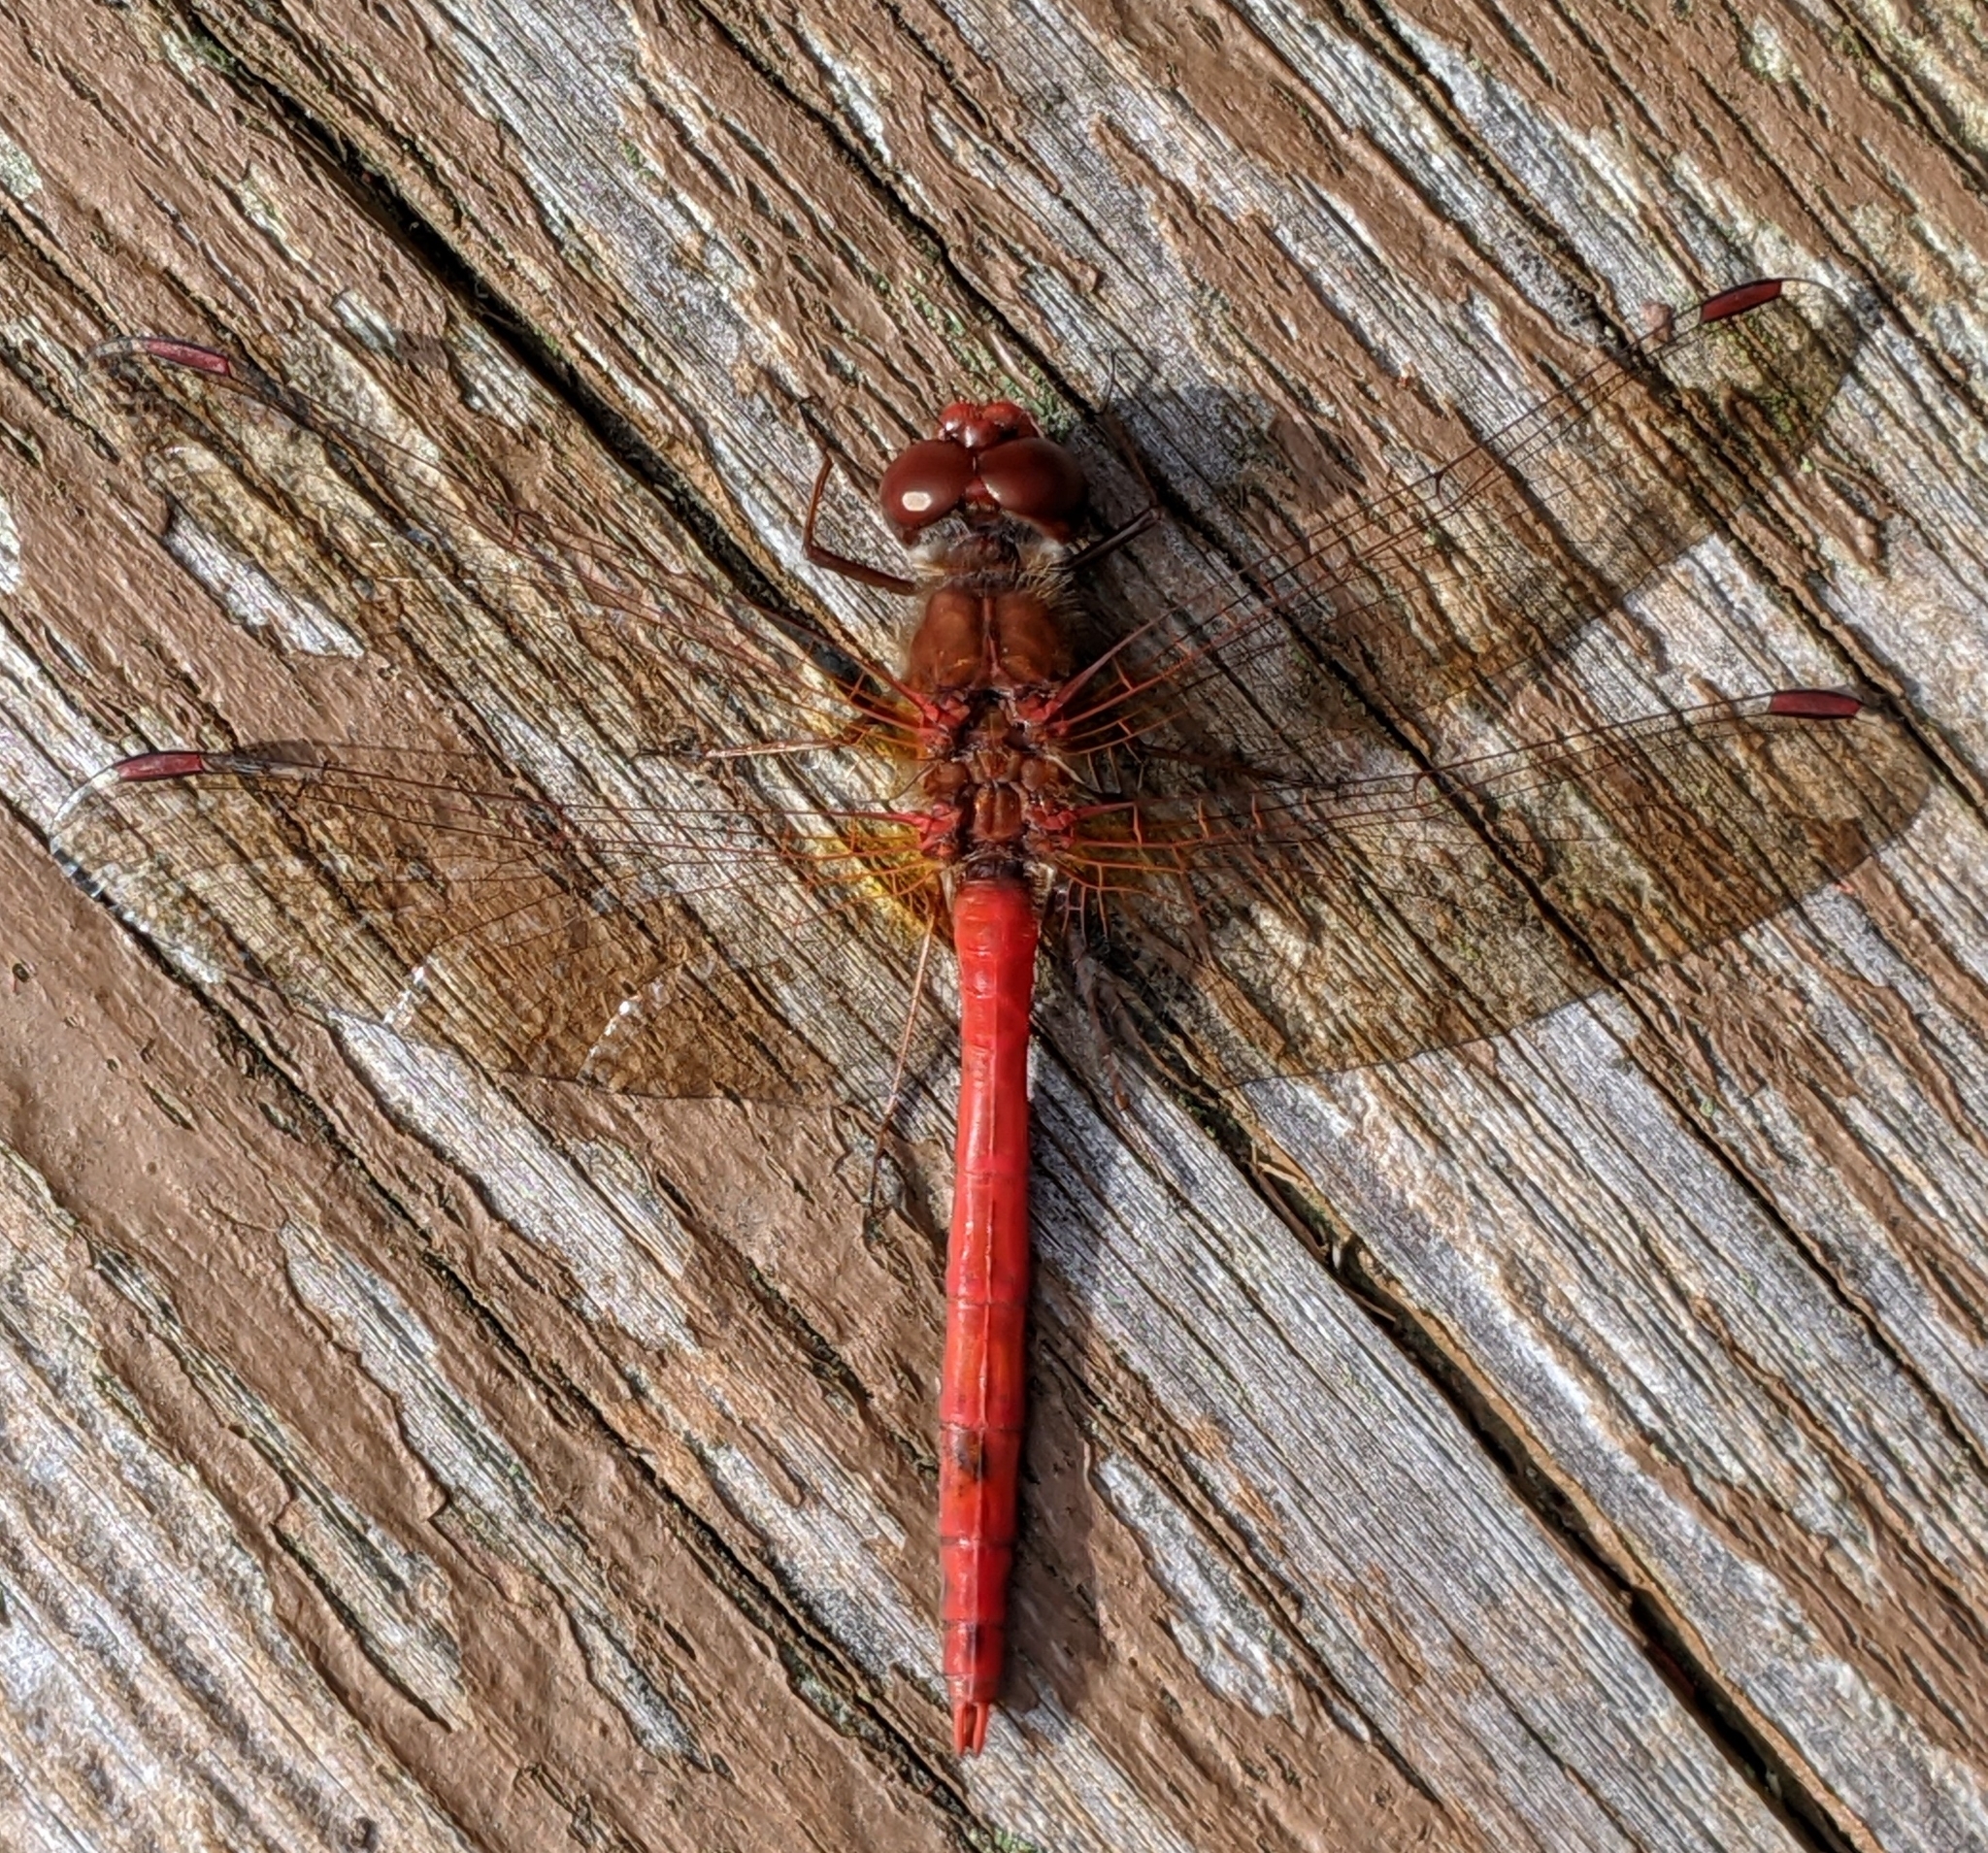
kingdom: Animalia
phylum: Arthropoda
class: Insecta
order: Odonata
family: Libellulidae
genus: Sympetrum
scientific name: Sympetrum vicinum
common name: Autumn meadowhawk
